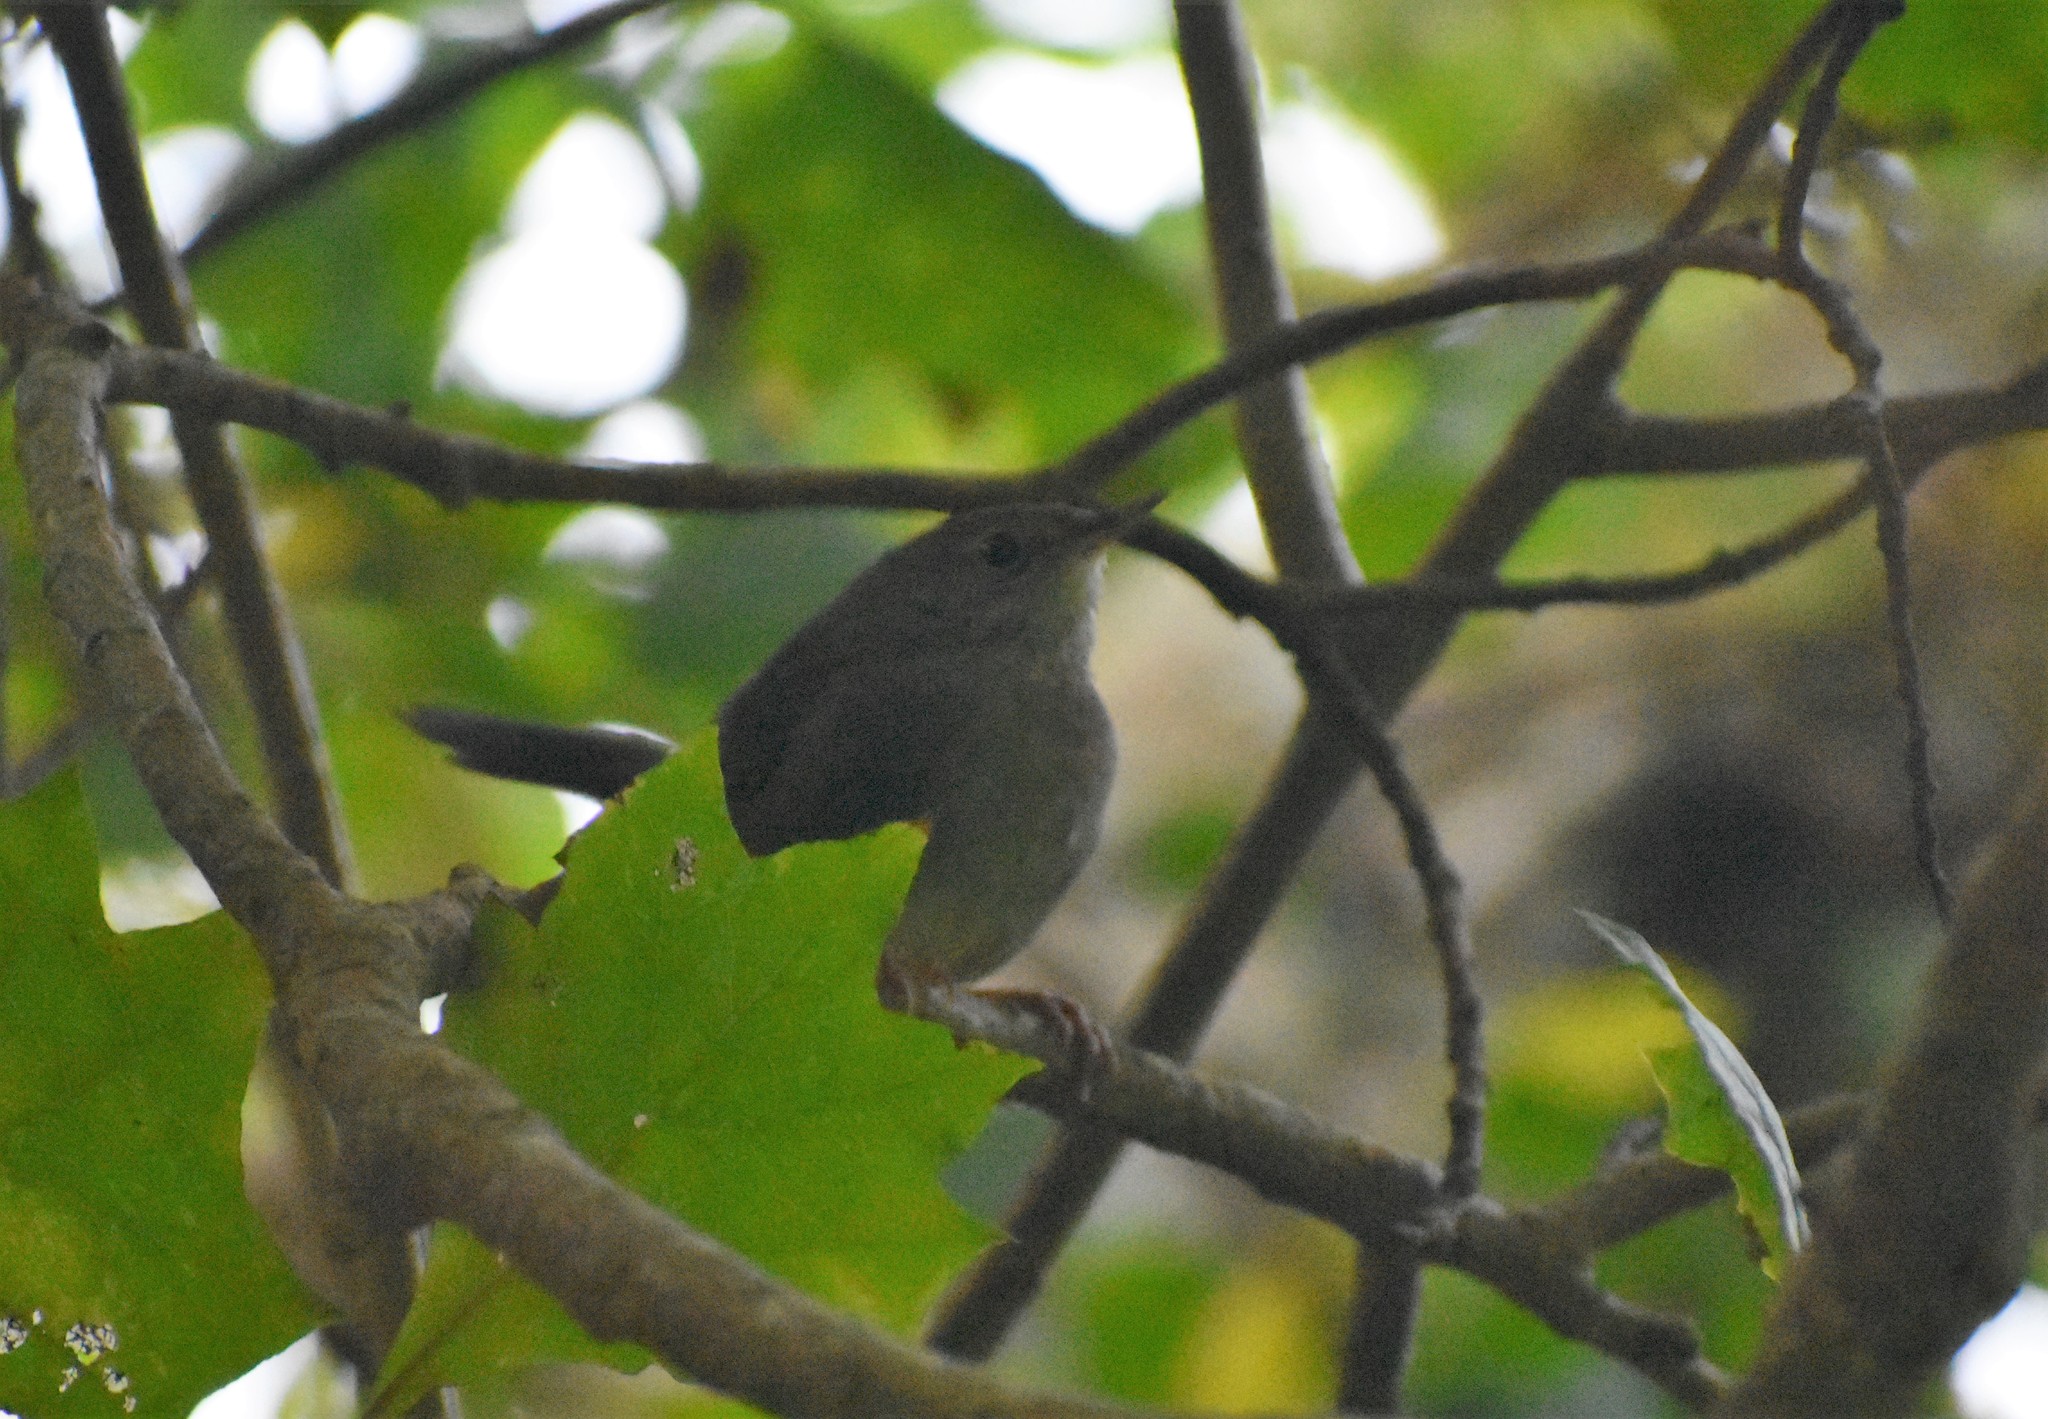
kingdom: Animalia
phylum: Chordata
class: Aves
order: Passeriformes
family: Locustellidae
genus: Bradypterus
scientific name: Bradypterus sylvaticus
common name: Knysna warbler
